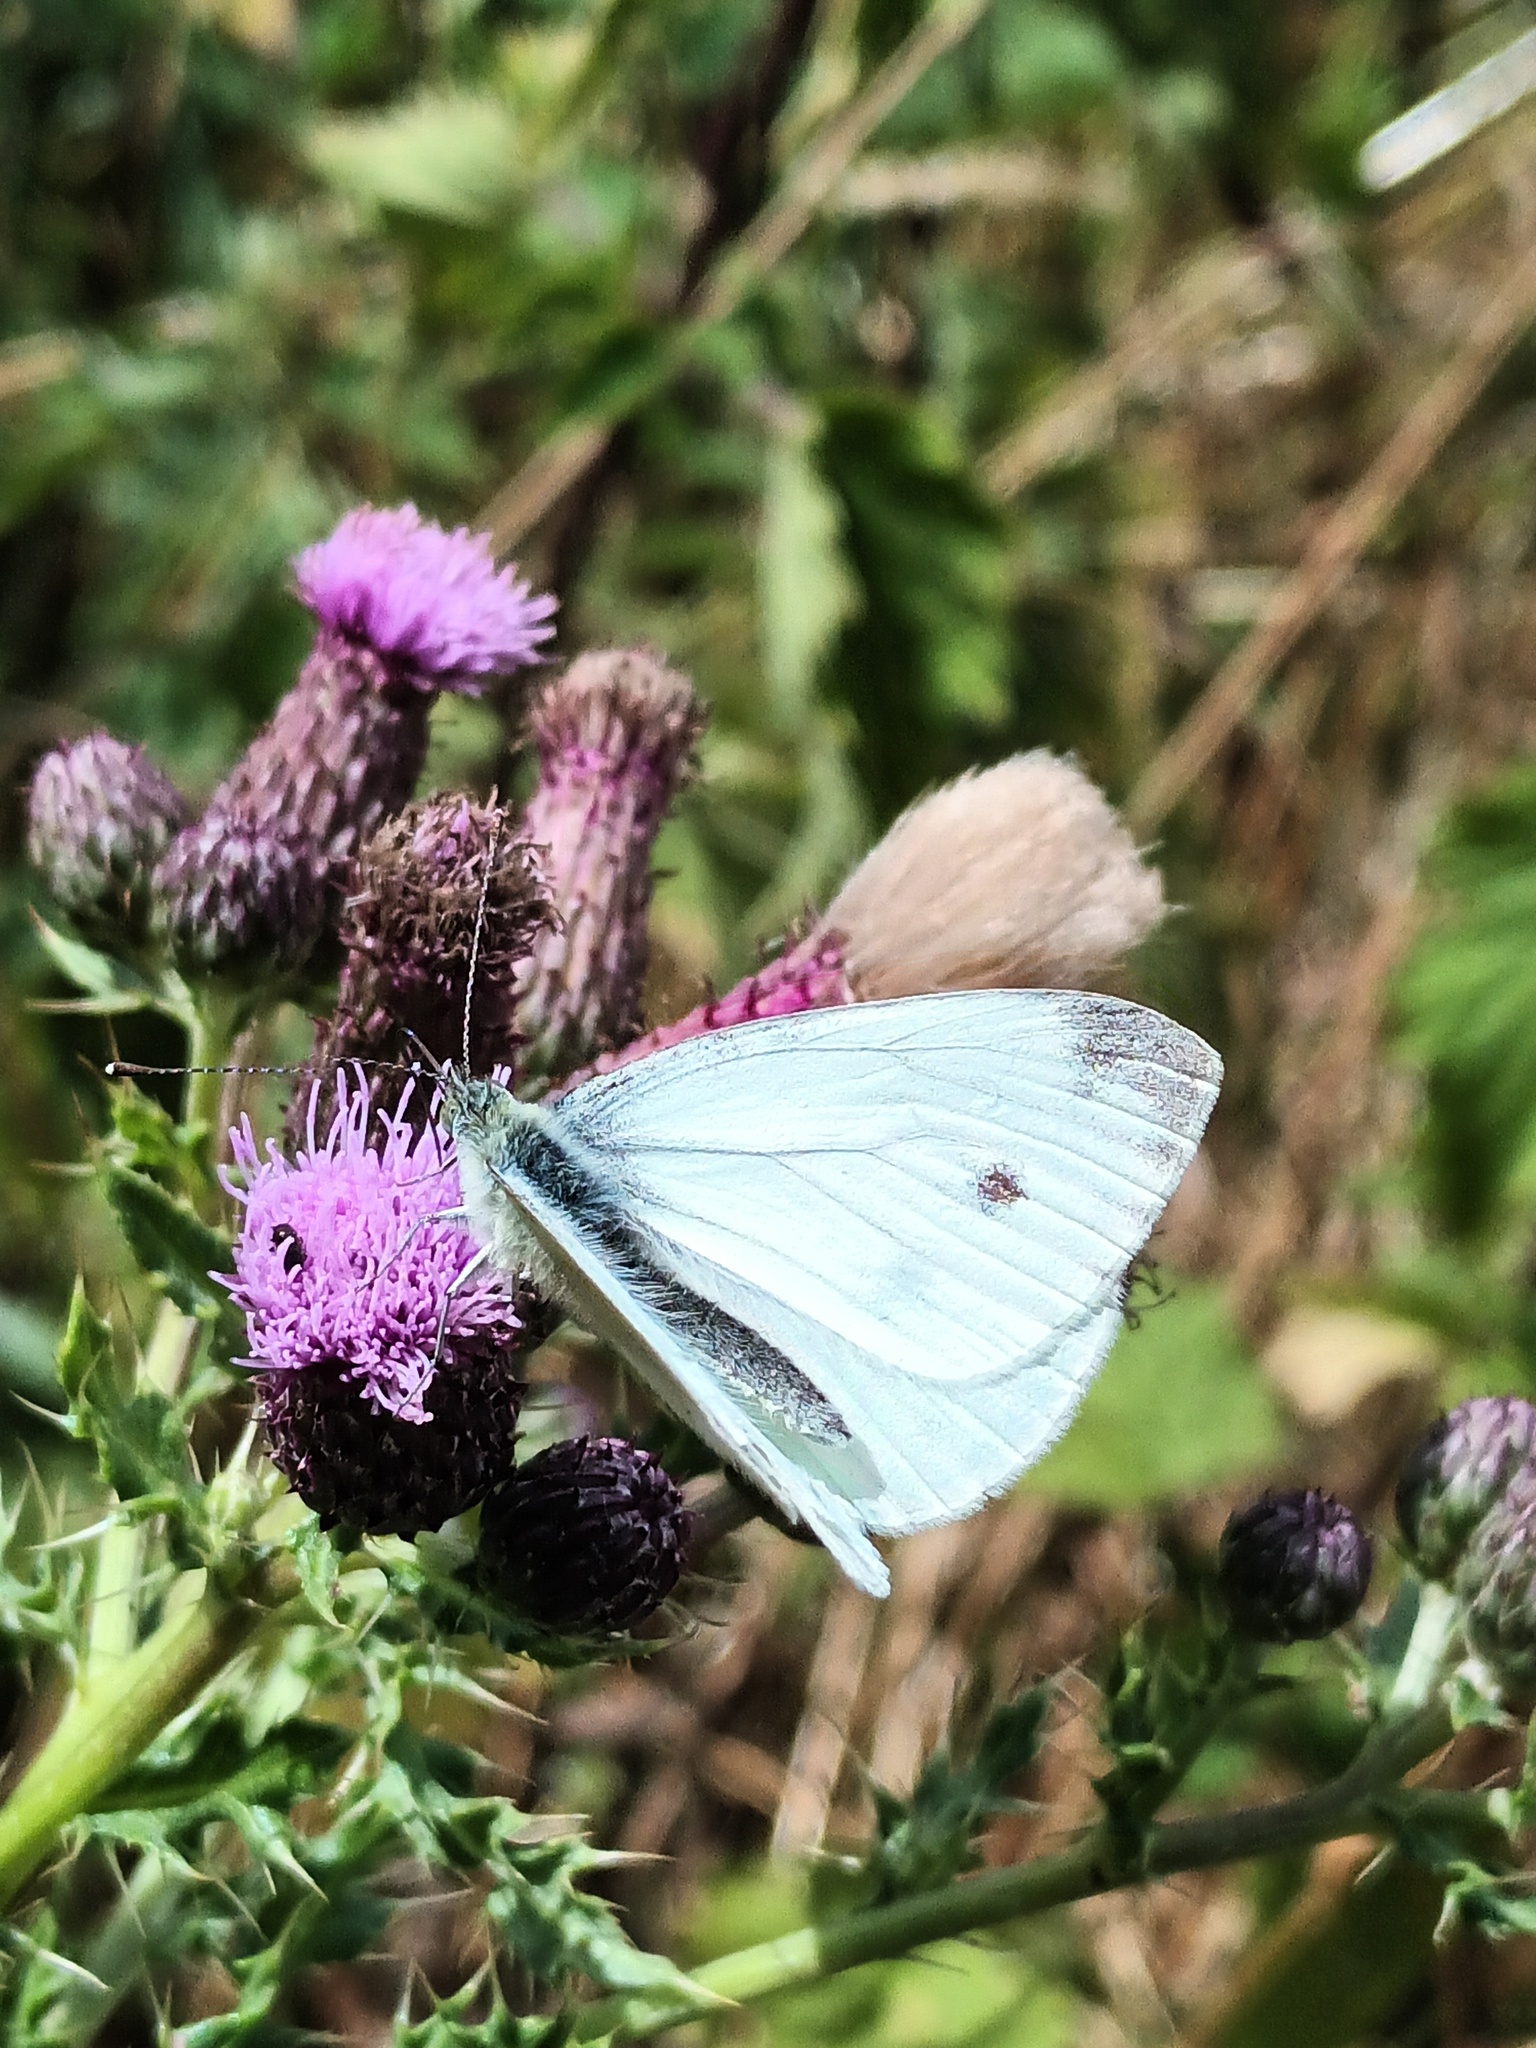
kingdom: Animalia
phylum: Arthropoda
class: Insecta
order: Lepidoptera
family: Pieridae
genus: Pieris
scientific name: Pieris napi
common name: Green-veined white
